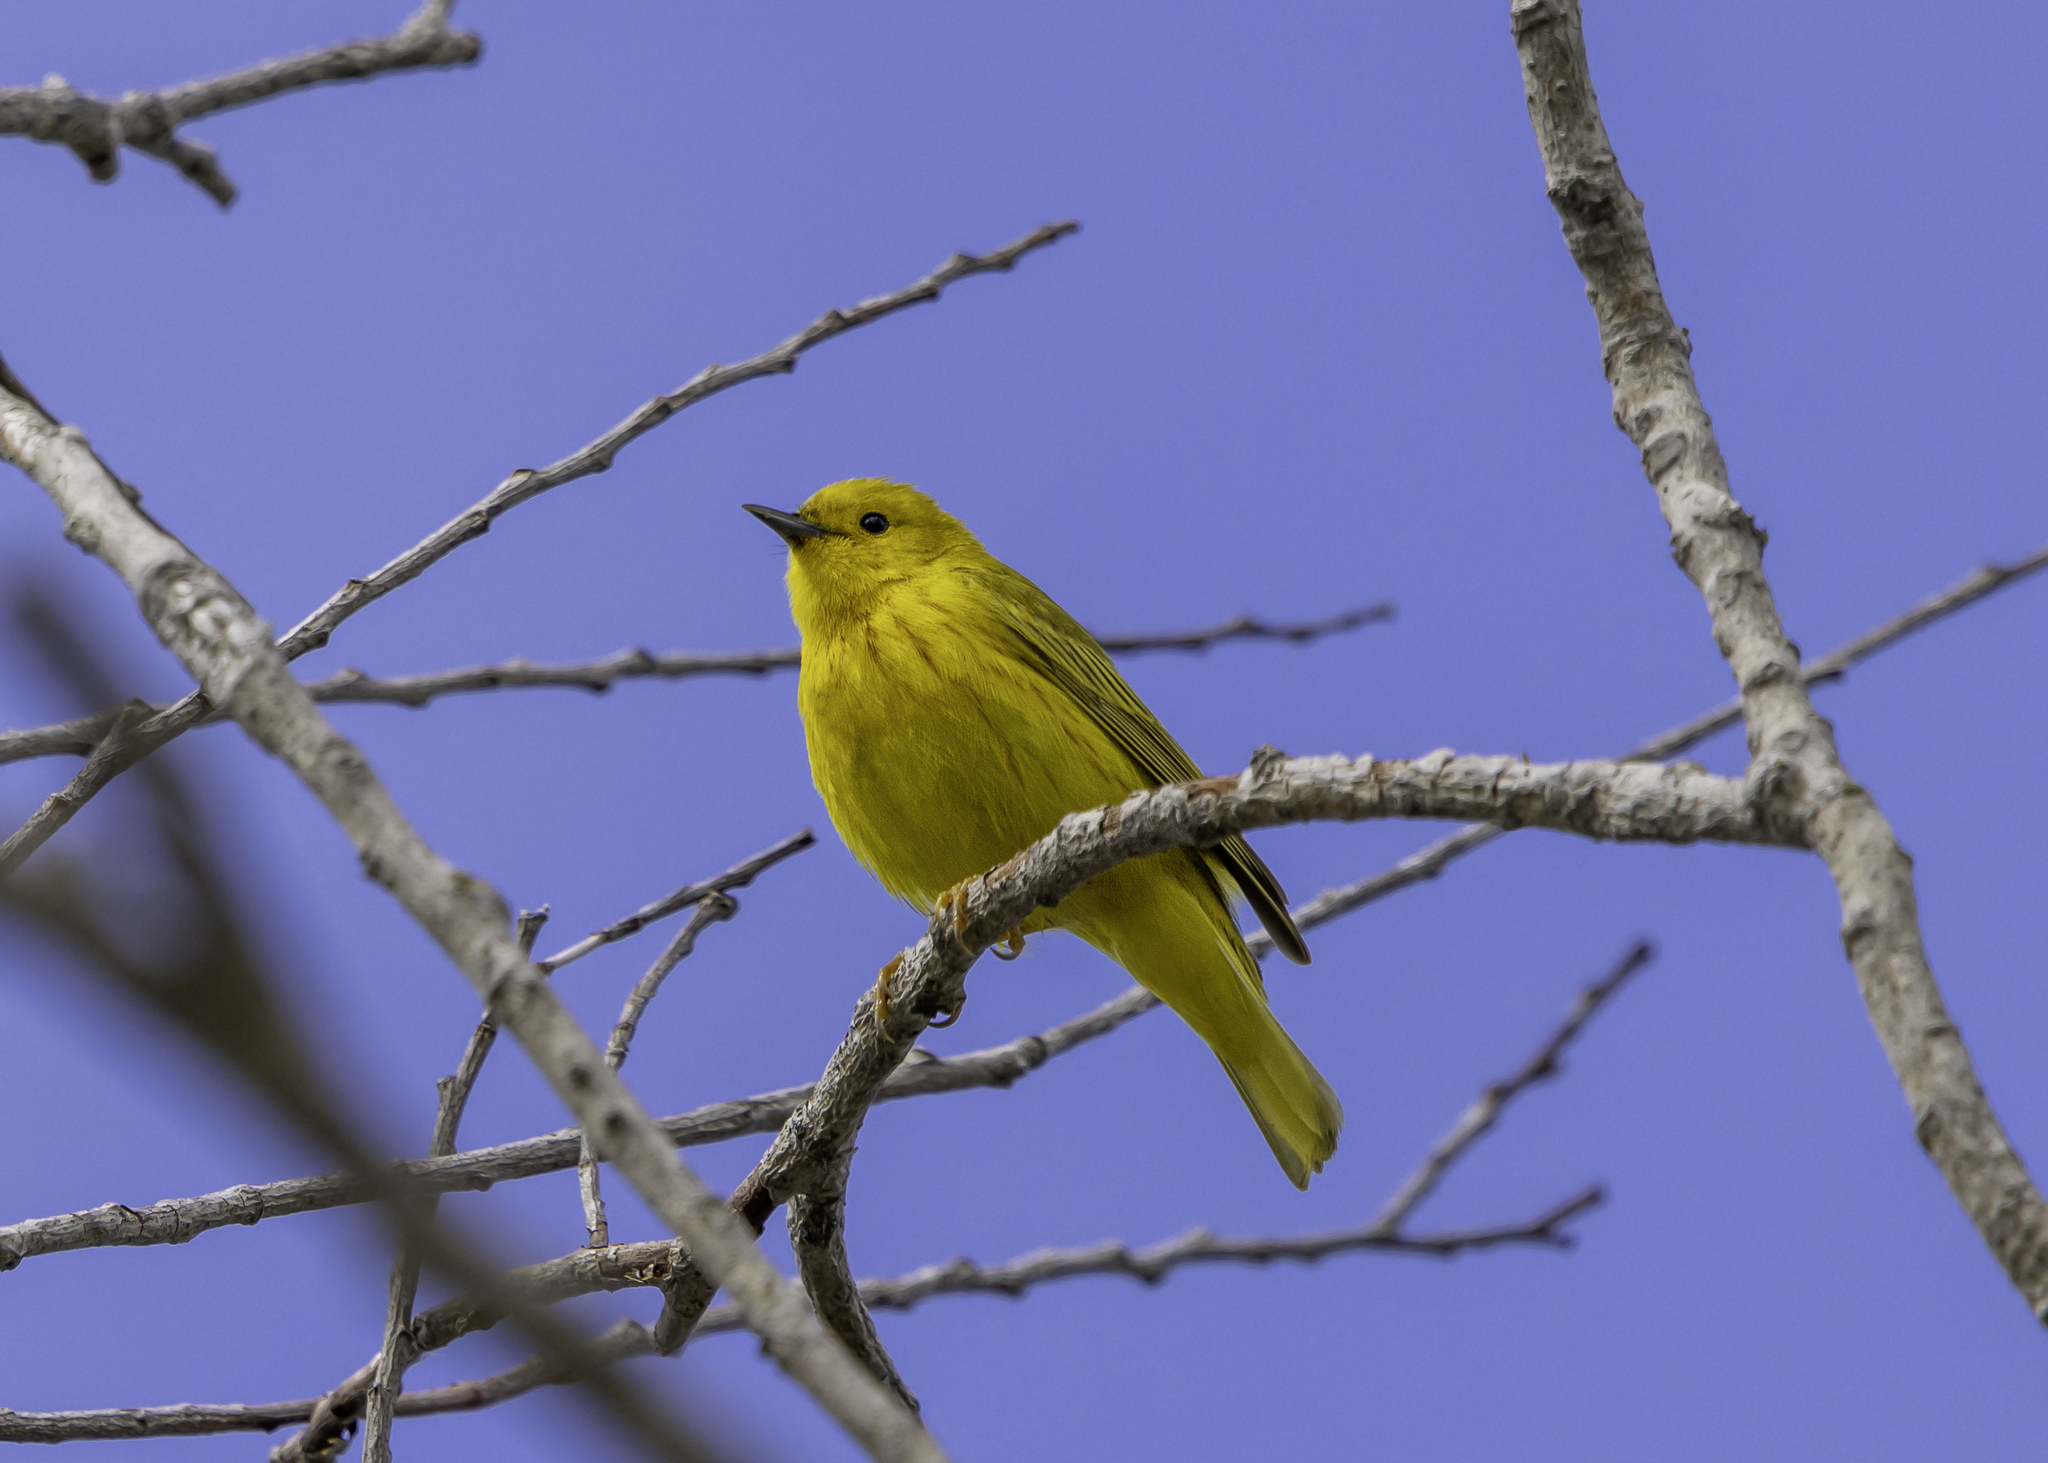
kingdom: Animalia
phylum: Chordata
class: Aves
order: Passeriformes
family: Parulidae
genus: Setophaga
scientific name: Setophaga petechia
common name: Yellow warbler
